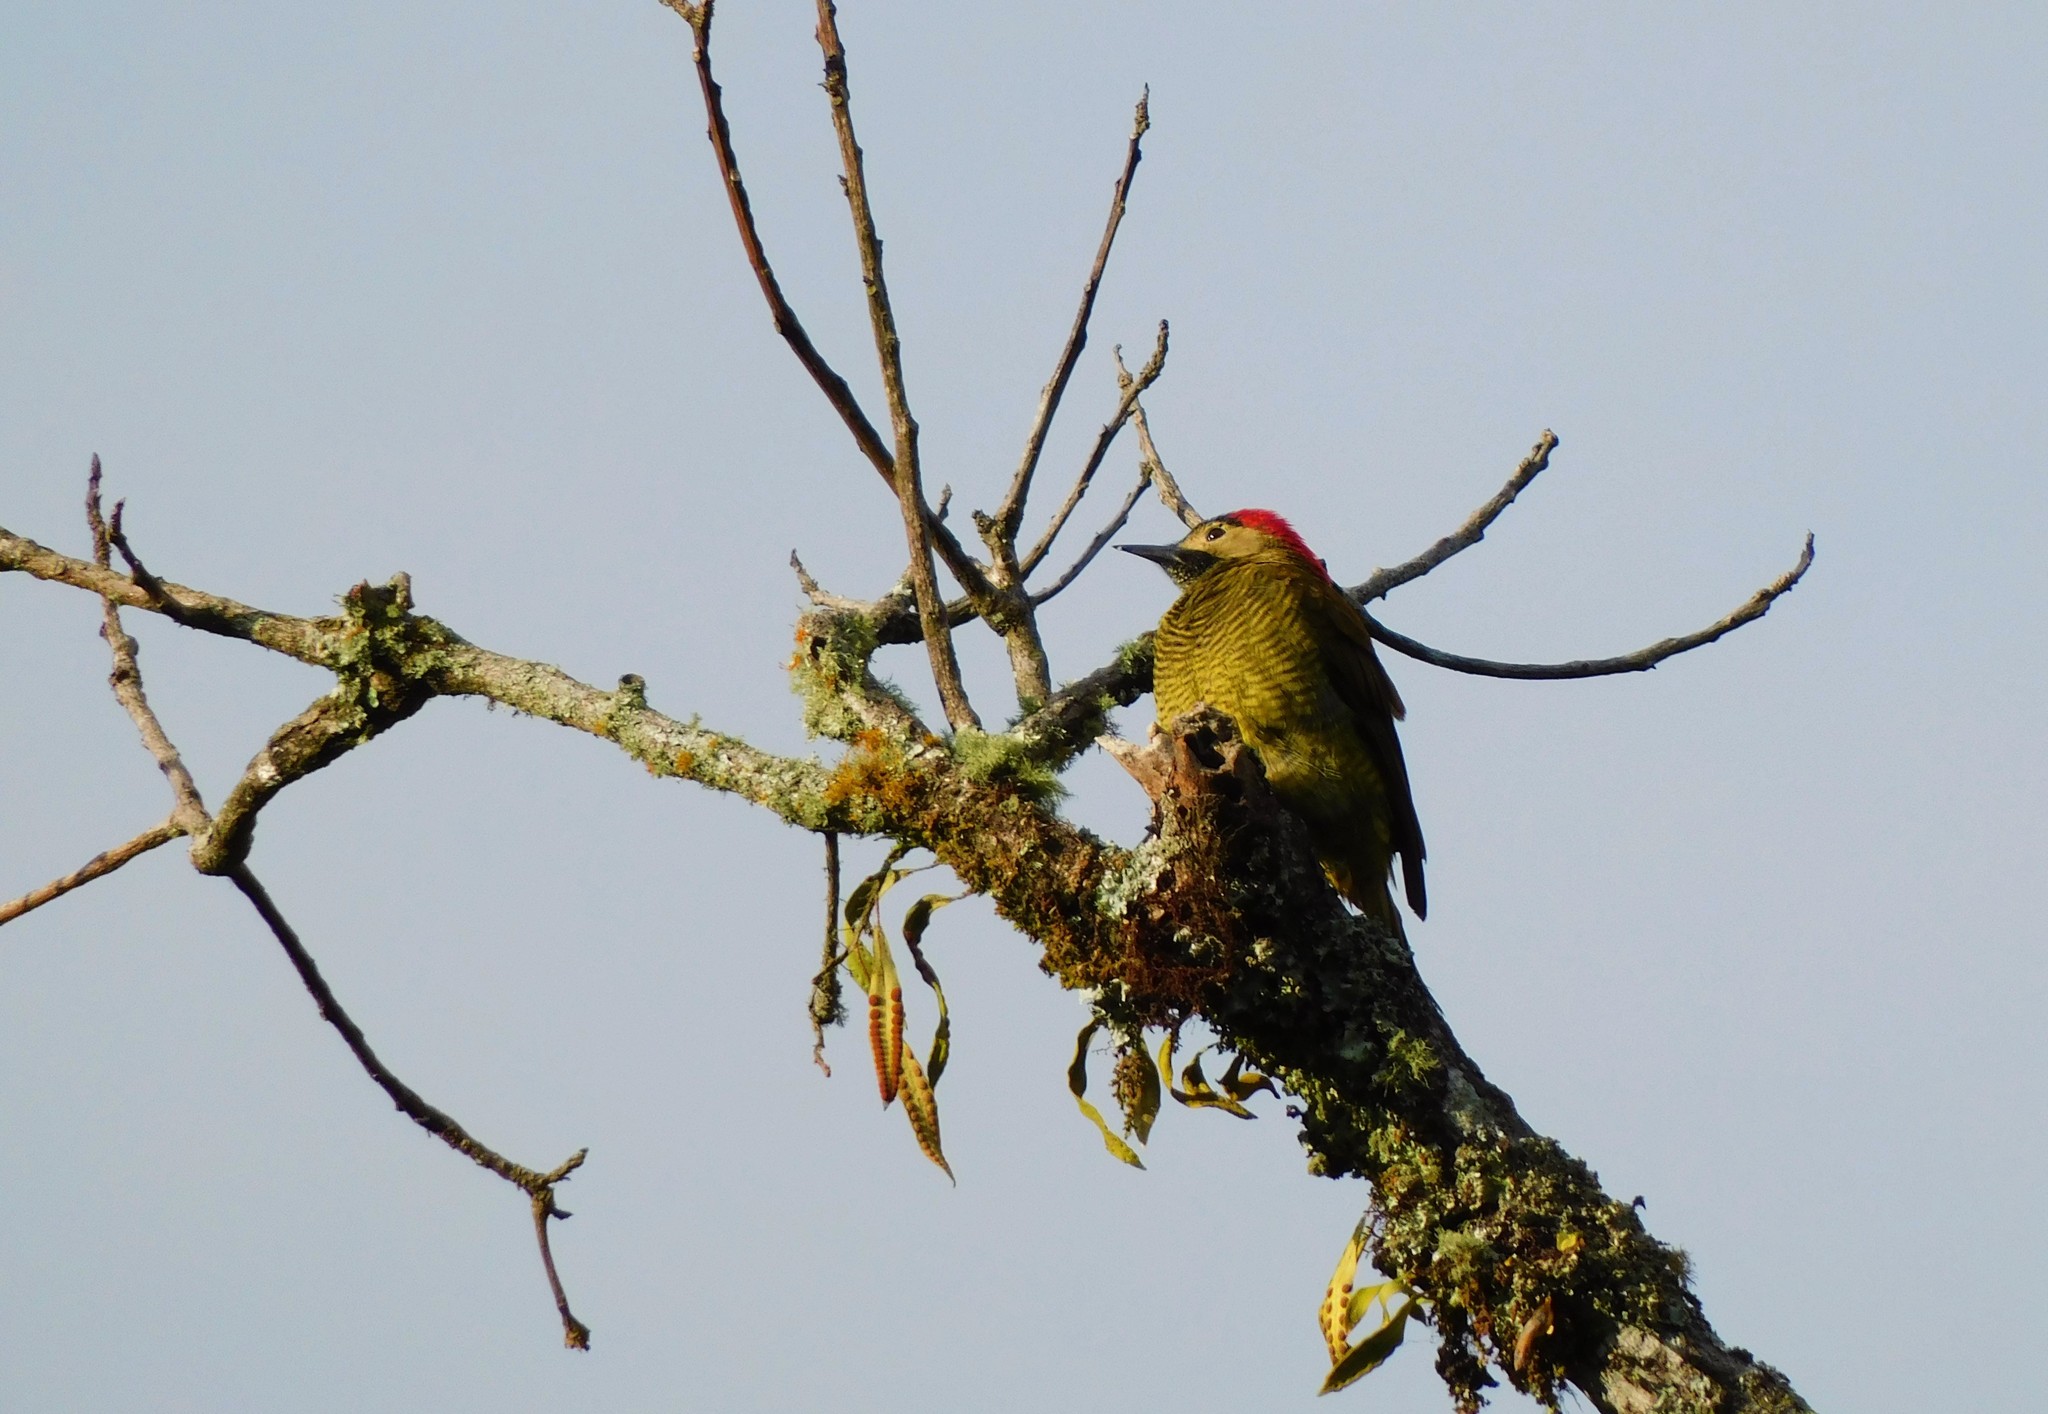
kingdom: Animalia
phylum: Chordata
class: Aves
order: Piciformes
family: Picidae
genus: Colaptes
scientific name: Colaptes rubiginosus
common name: Golden-olive woodpecker
